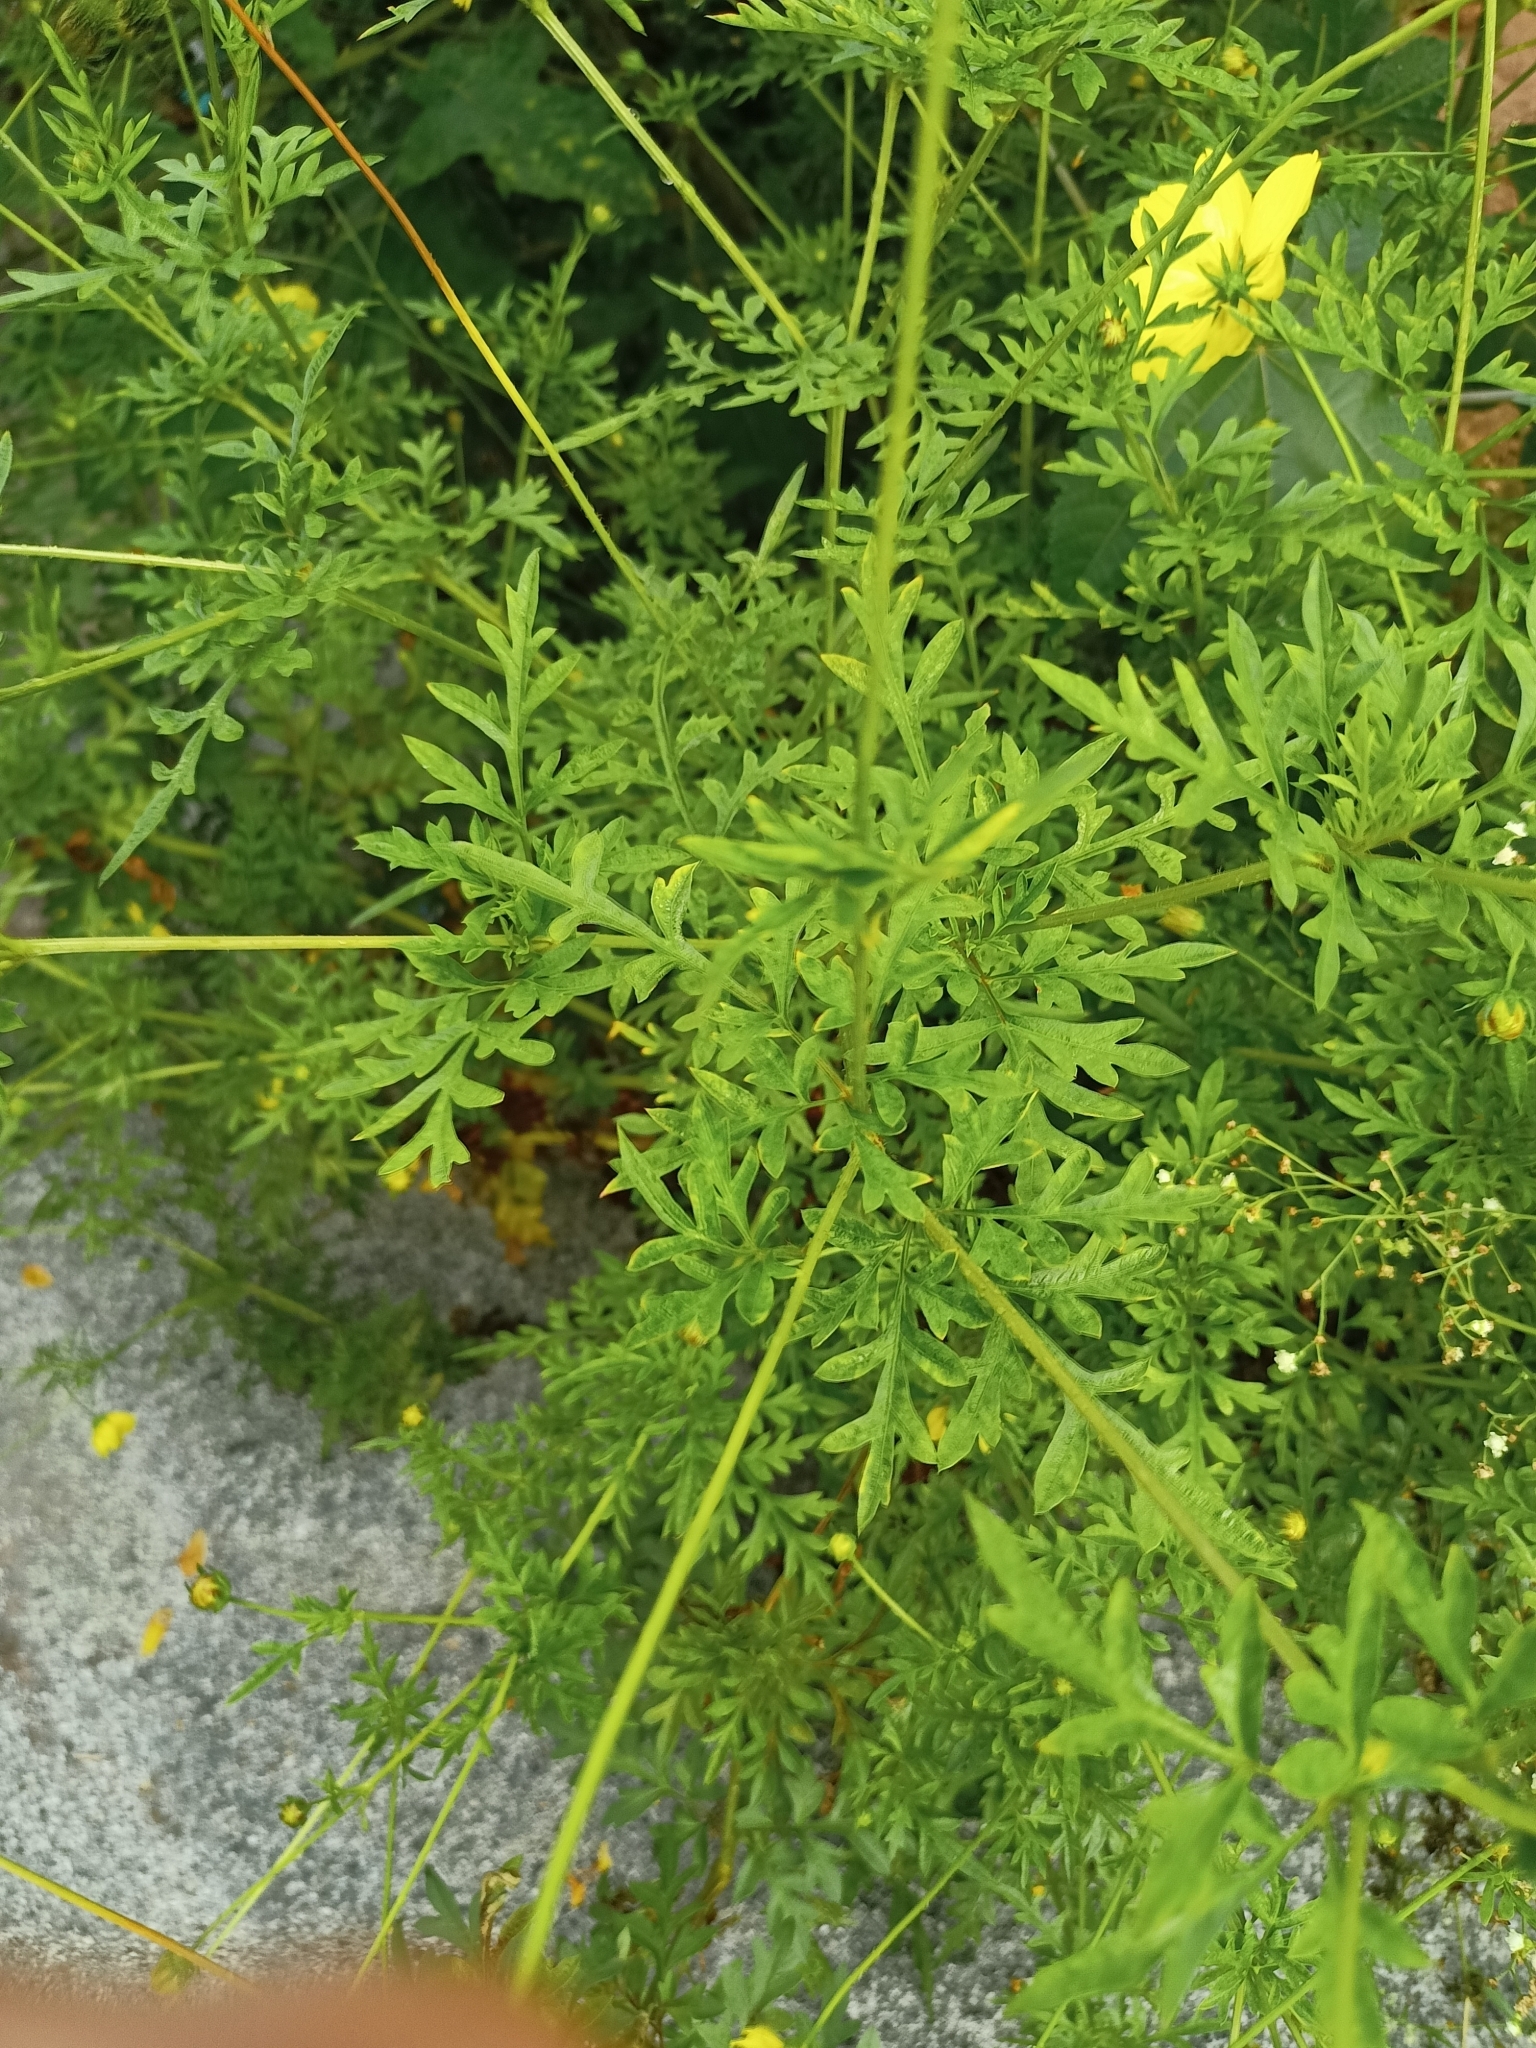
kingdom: Plantae
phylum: Tracheophyta
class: Magnoliopsida
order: Asterales
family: Asteraceae
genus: Cosmos
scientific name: Cosmos sulphureus
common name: Sulphur cosmos
